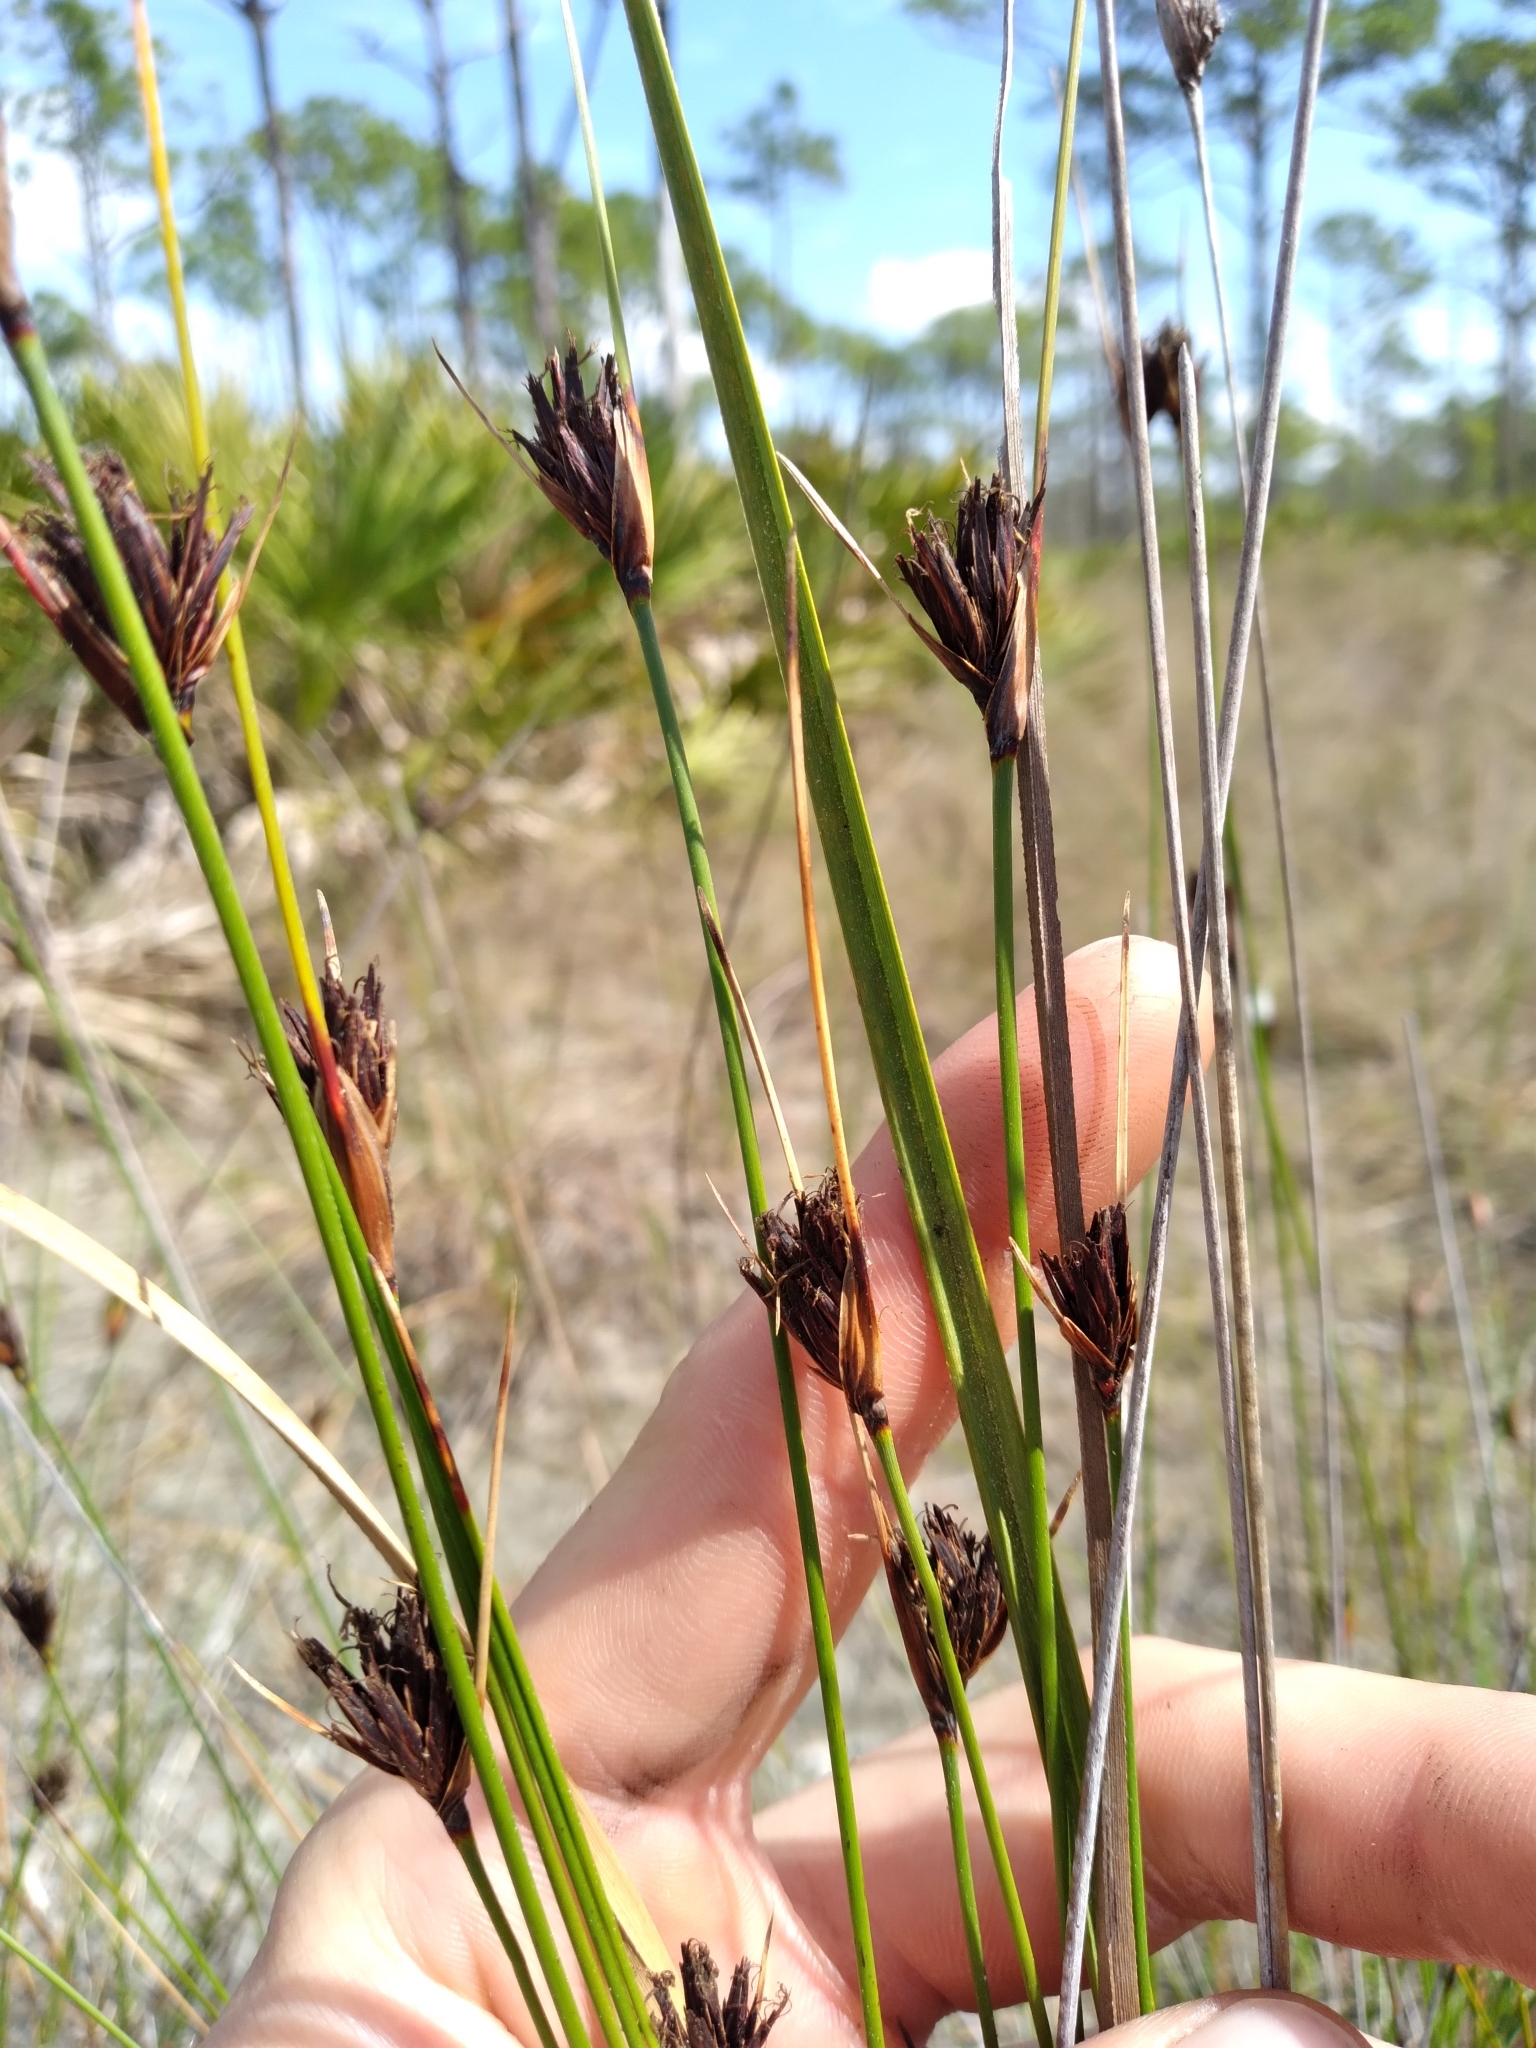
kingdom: Plantae
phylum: Tracheophyta
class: Liliopsida
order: Poales
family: Cyperaceae
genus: Schoenus
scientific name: Schoenus nigricans
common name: Black bog-rush
